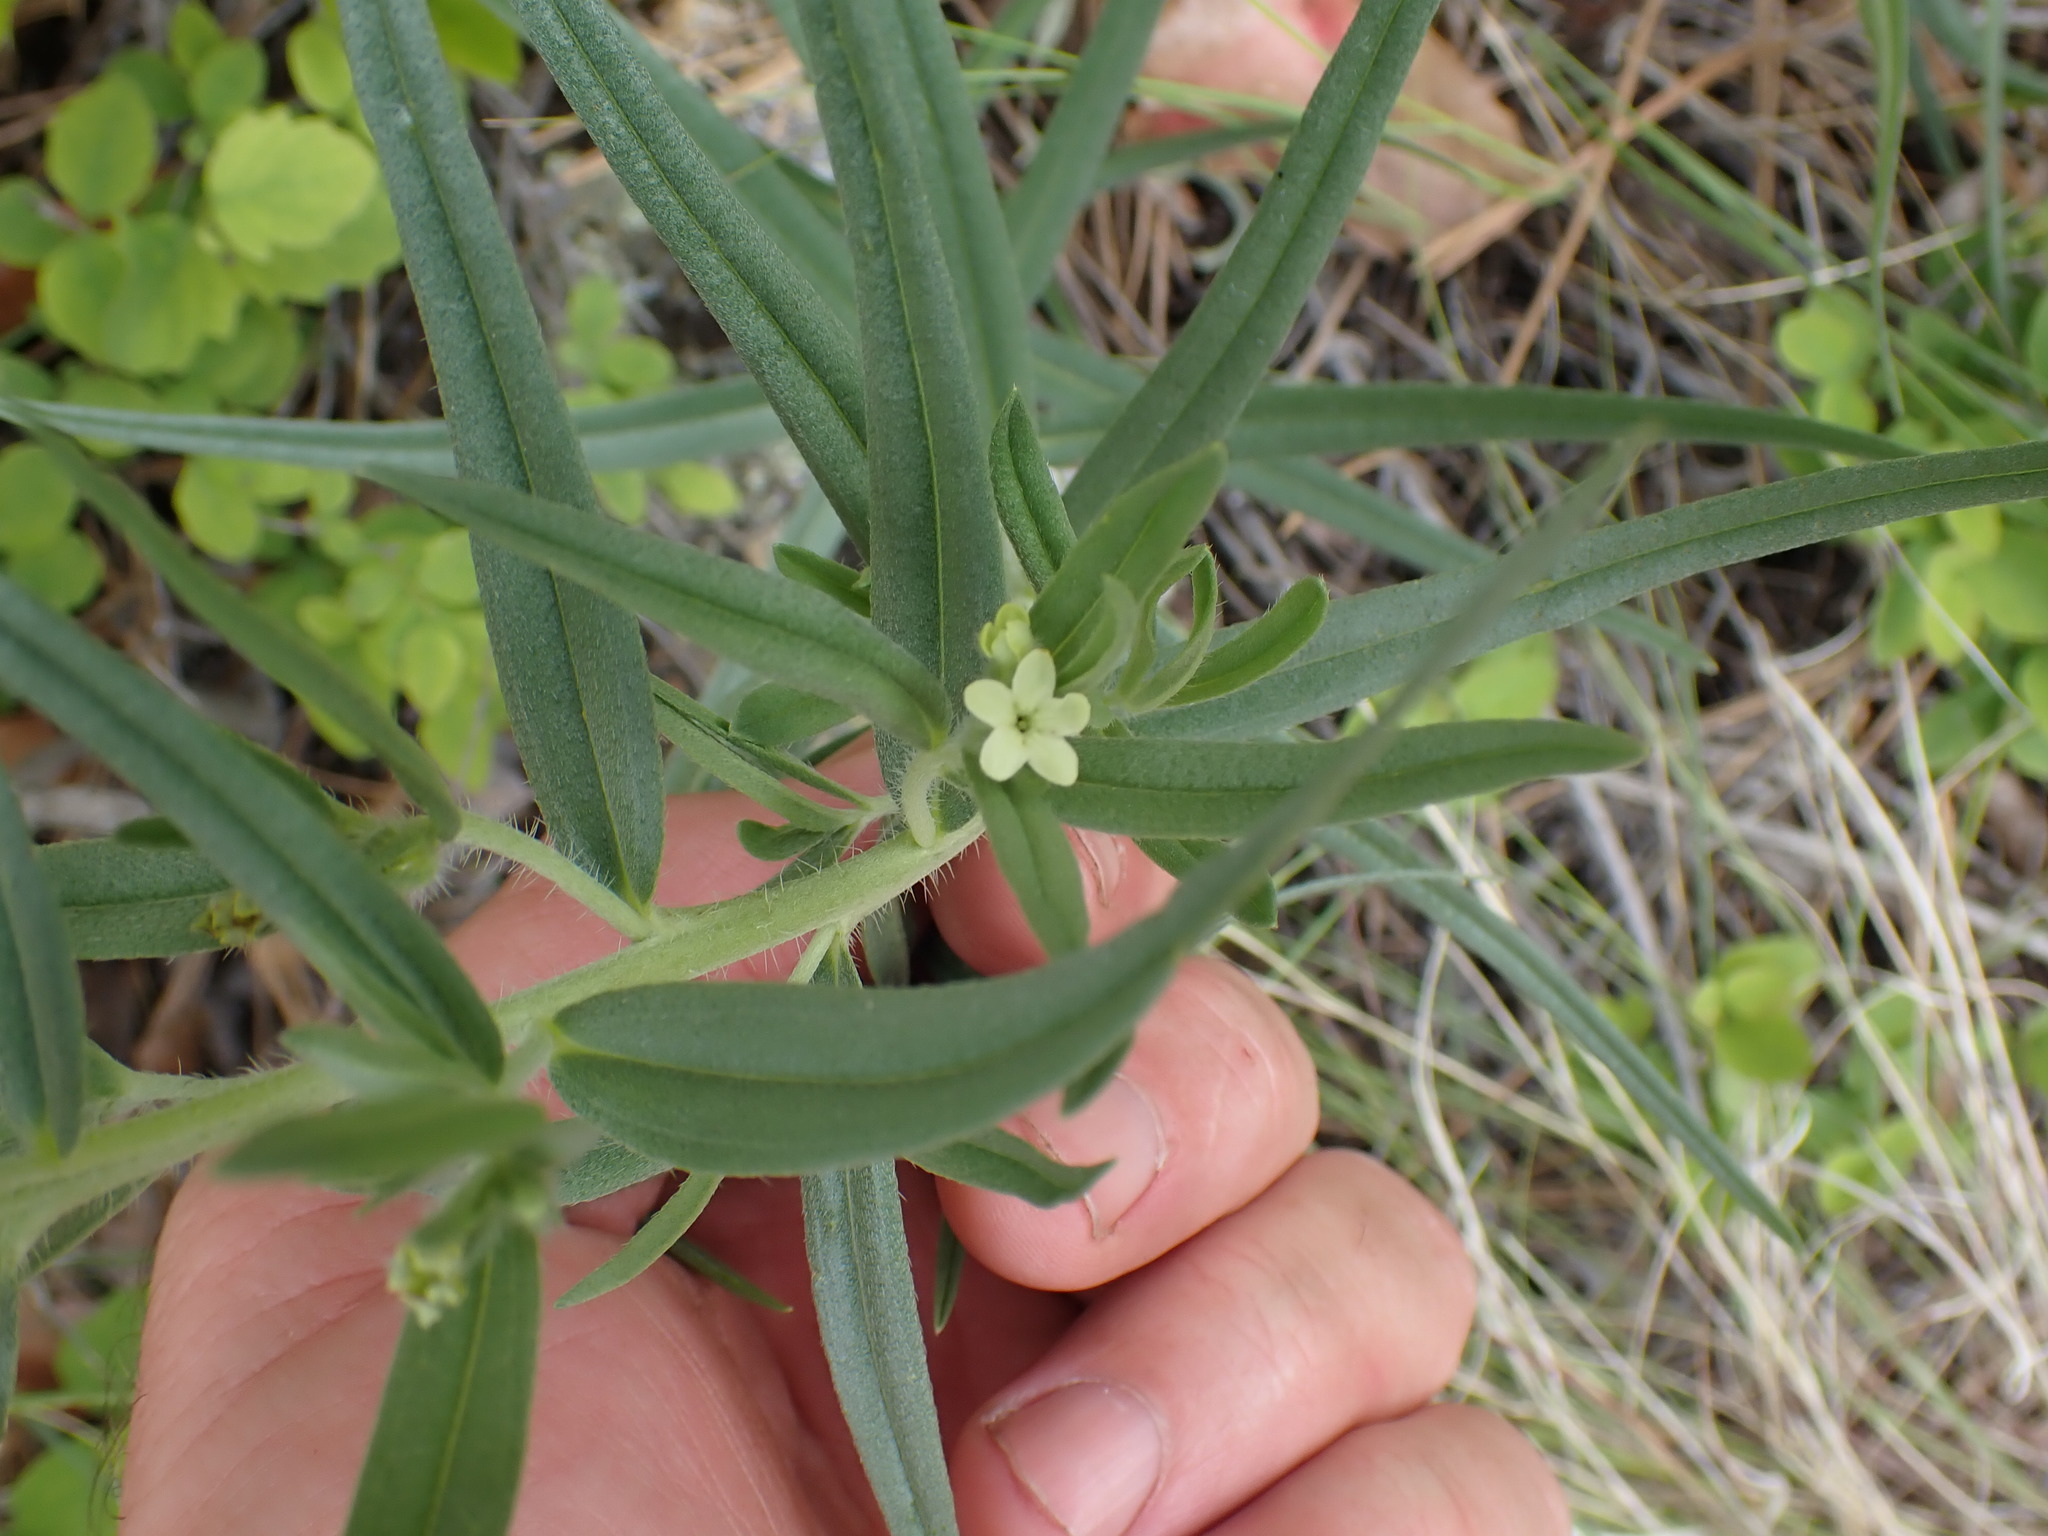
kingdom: Plantae
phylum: Tracheophyta
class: Magnoliopsida
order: Boraginales
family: Boraginaceae
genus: Lithospermum
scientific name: Lithospermum ruderale
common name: Western gromwell
